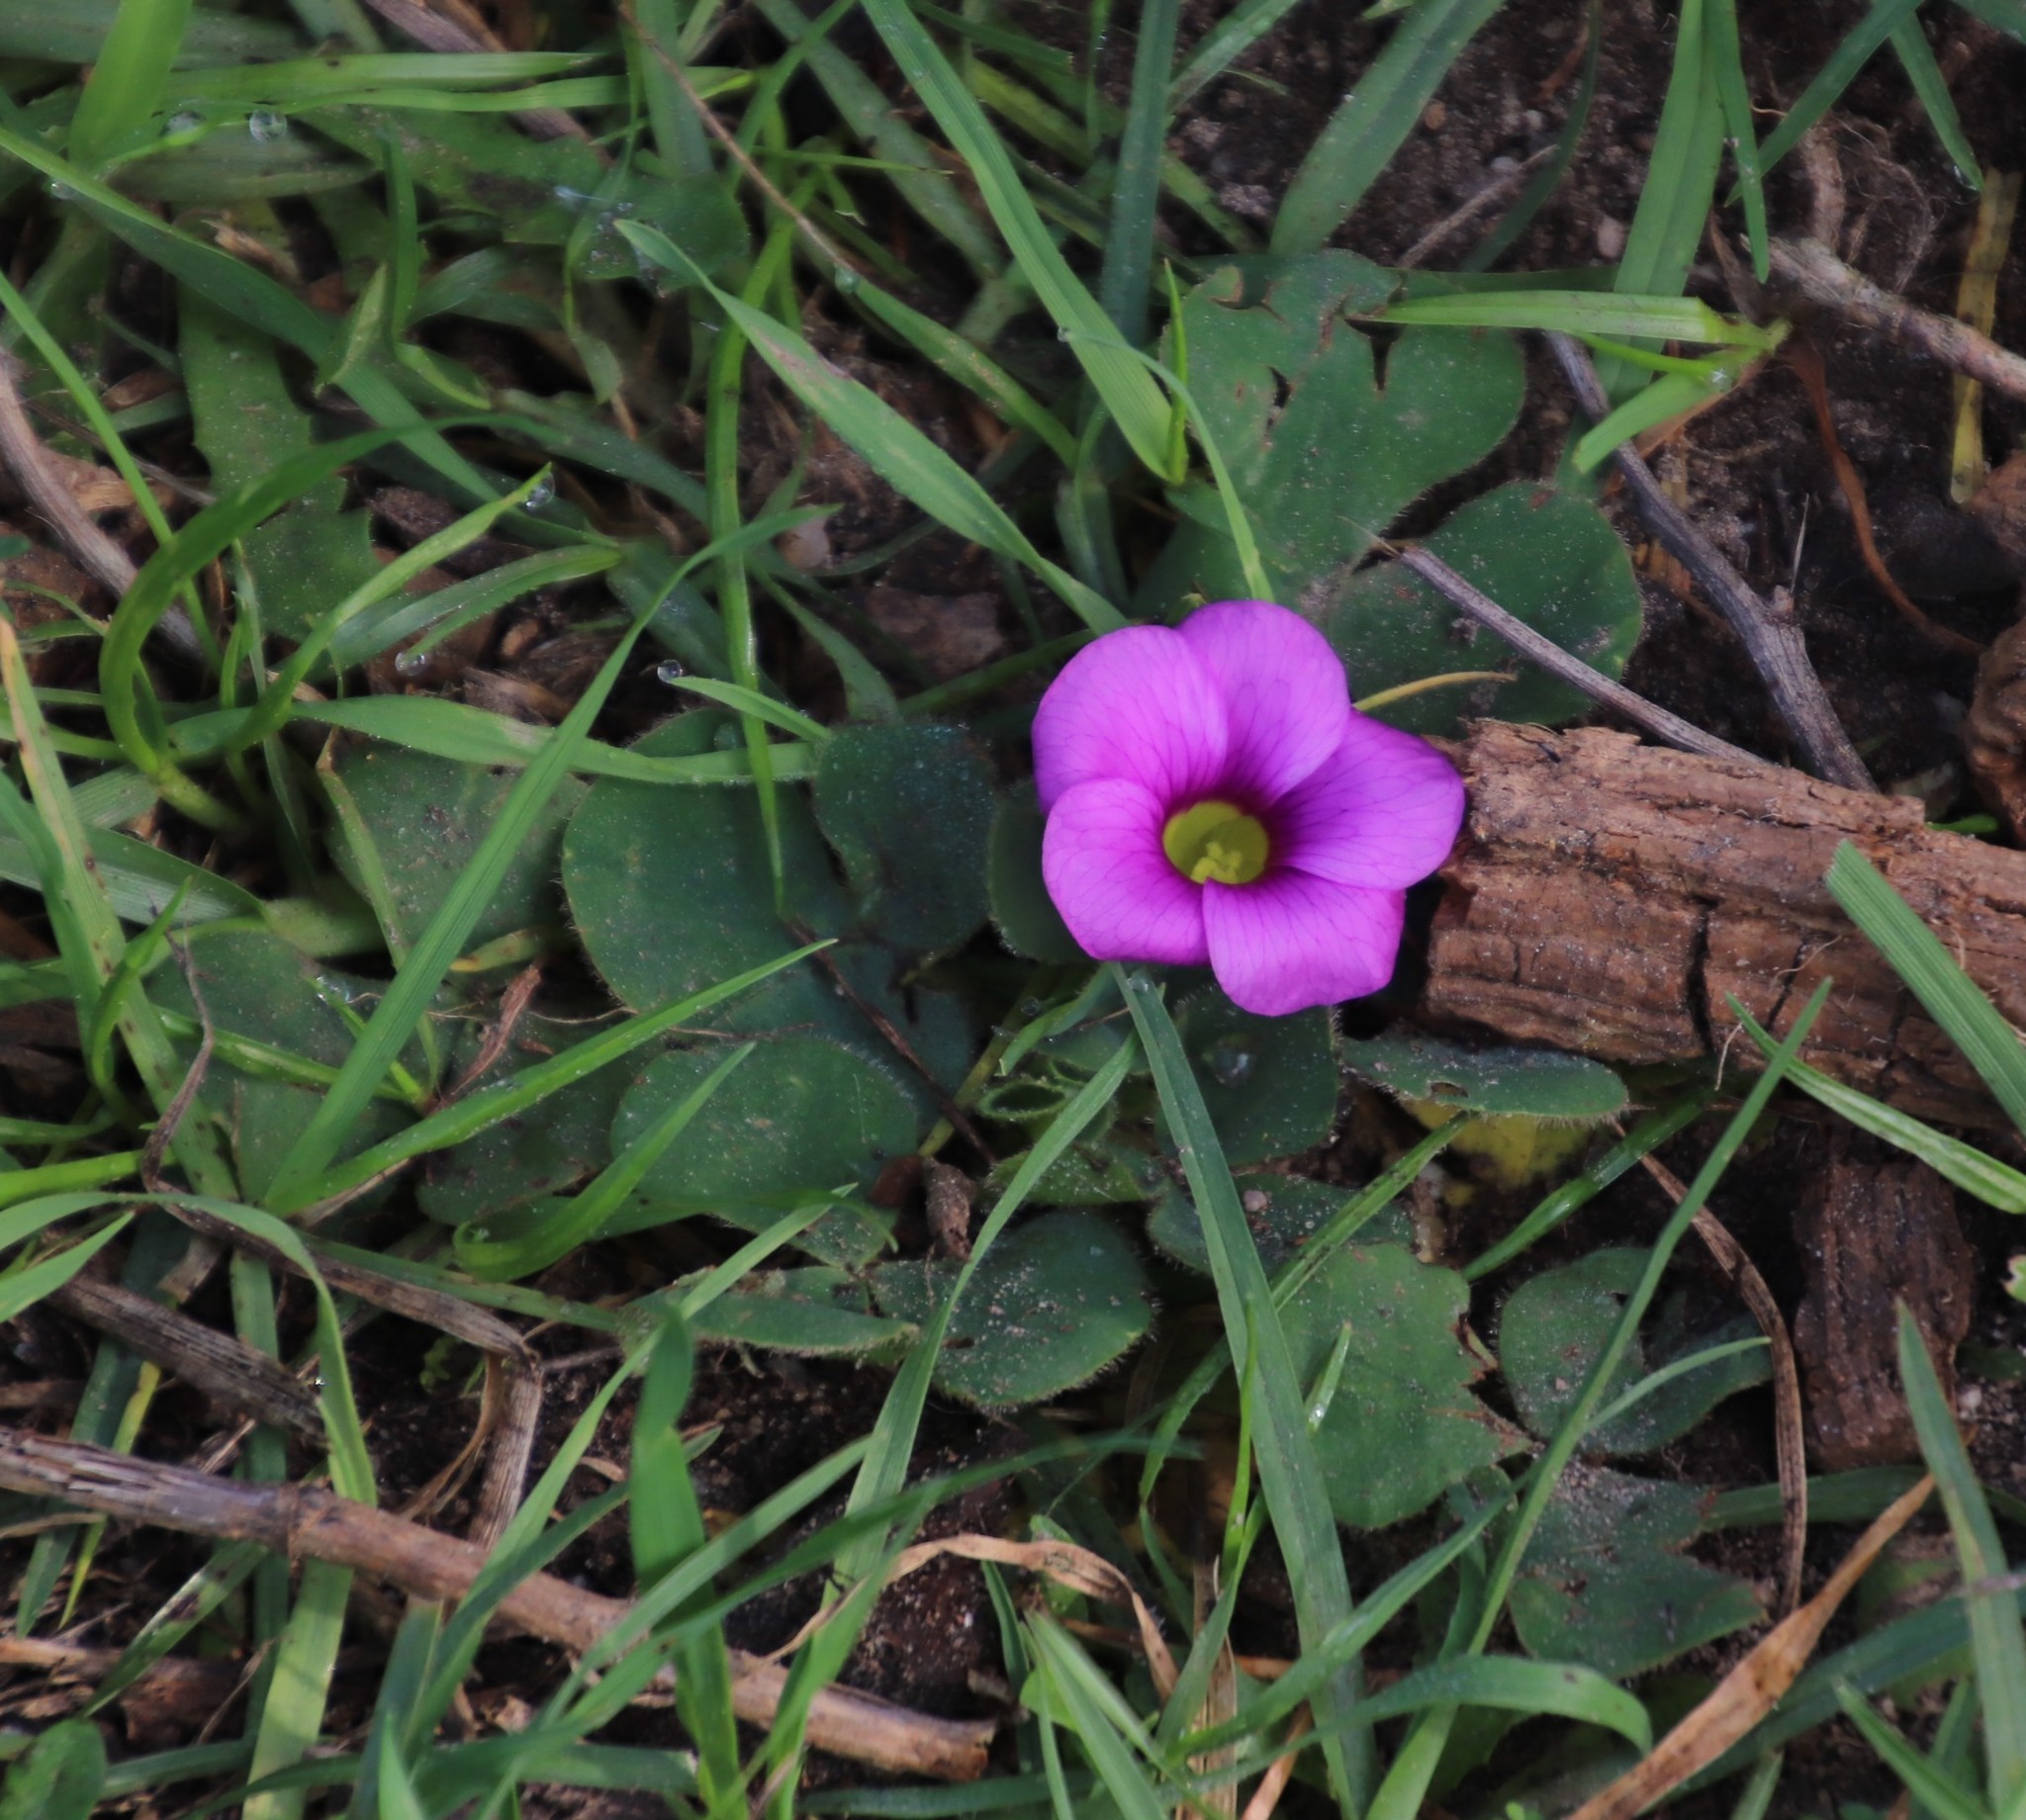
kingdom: Plantae
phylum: Tracheophyta
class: Magnoliopsida
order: Oxalidales
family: Oxalidaceae
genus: Oxalis
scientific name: Oxalis purpurea
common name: Purple woodsorrel
